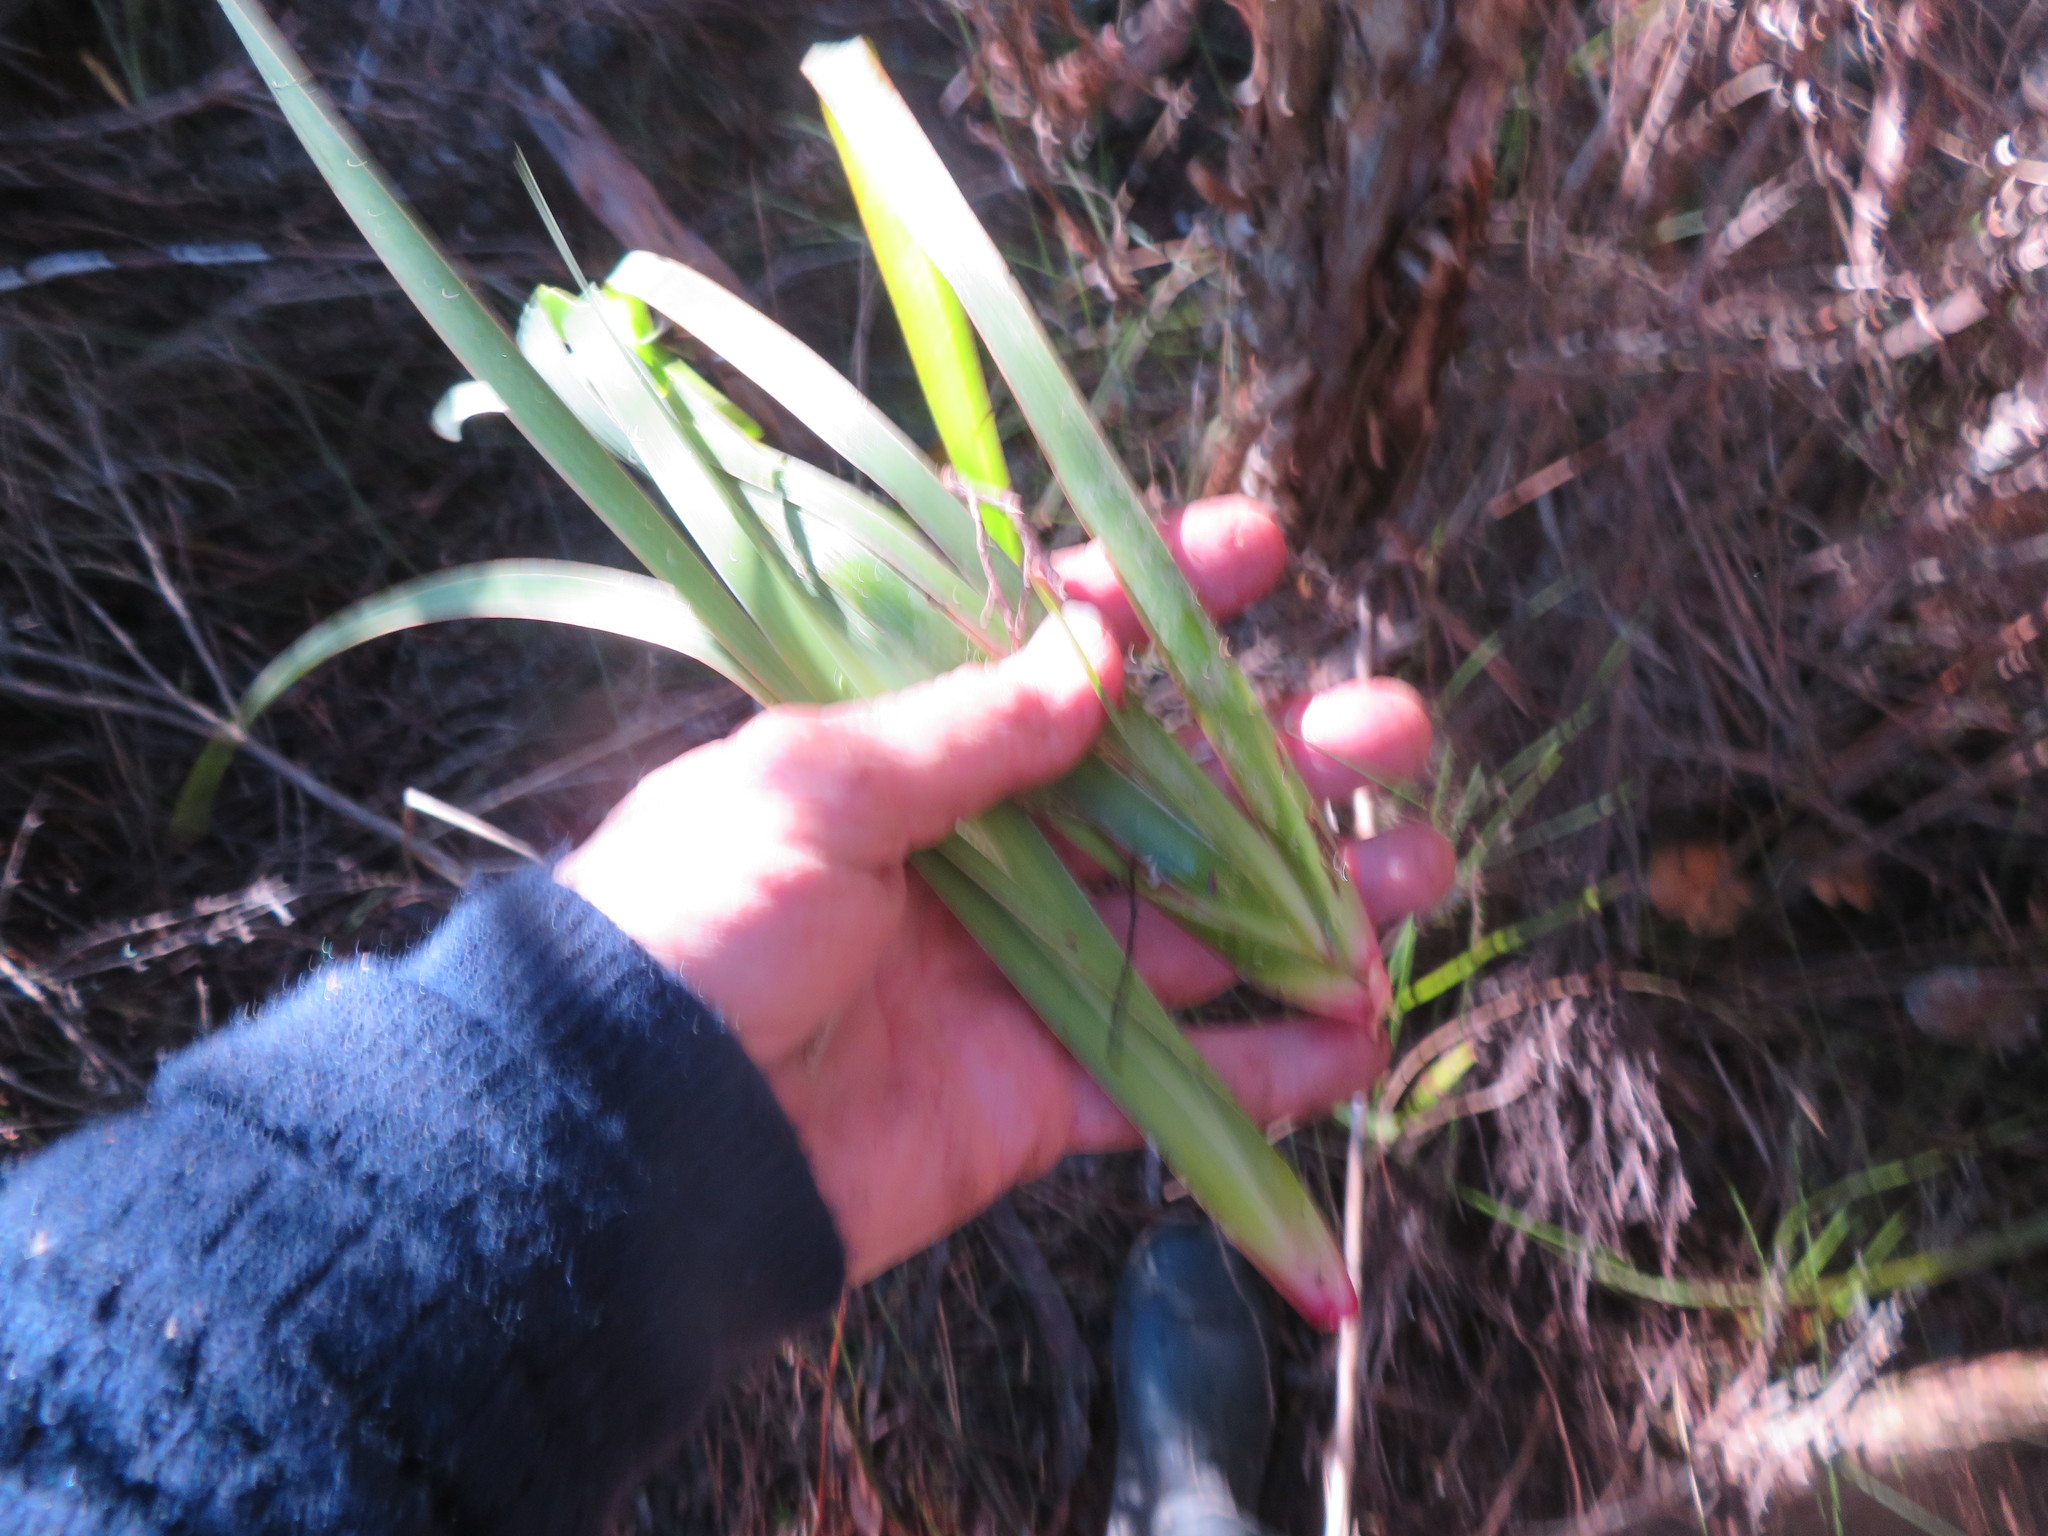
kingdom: Plantae
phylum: Tracheophyta
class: Liliopsida
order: Asparagales
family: Iridaceae
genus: Aristea
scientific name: Aristea ecklonii
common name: Blue corn-lily
